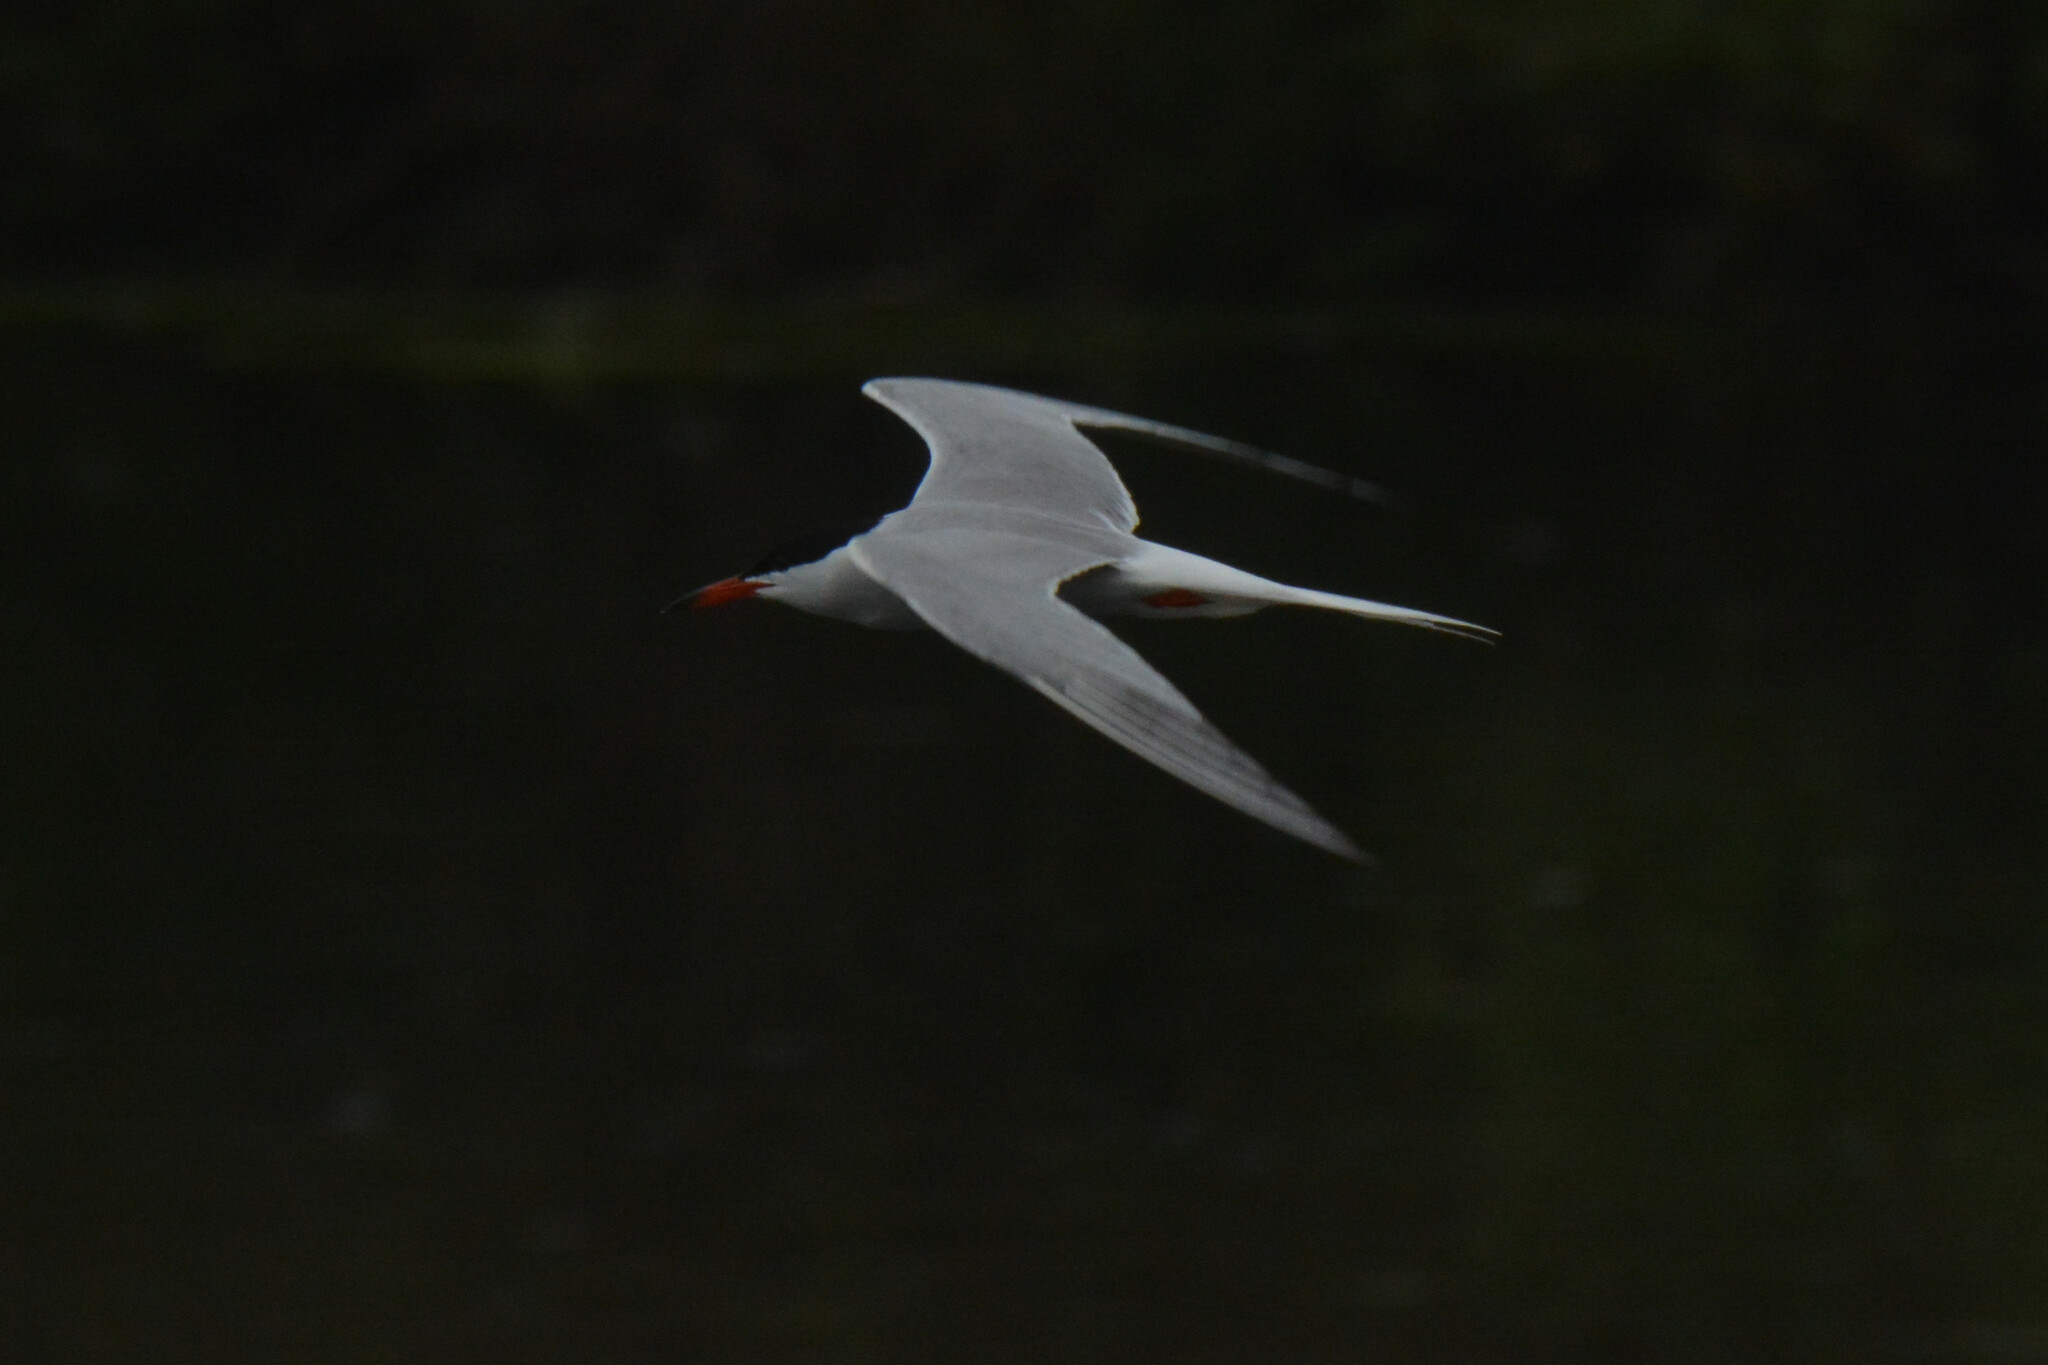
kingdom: Animalia
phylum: Chordata
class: Aves
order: Charadriiformes
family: Laridae
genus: Sterna
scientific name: Sterna hirundo
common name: Common tern
